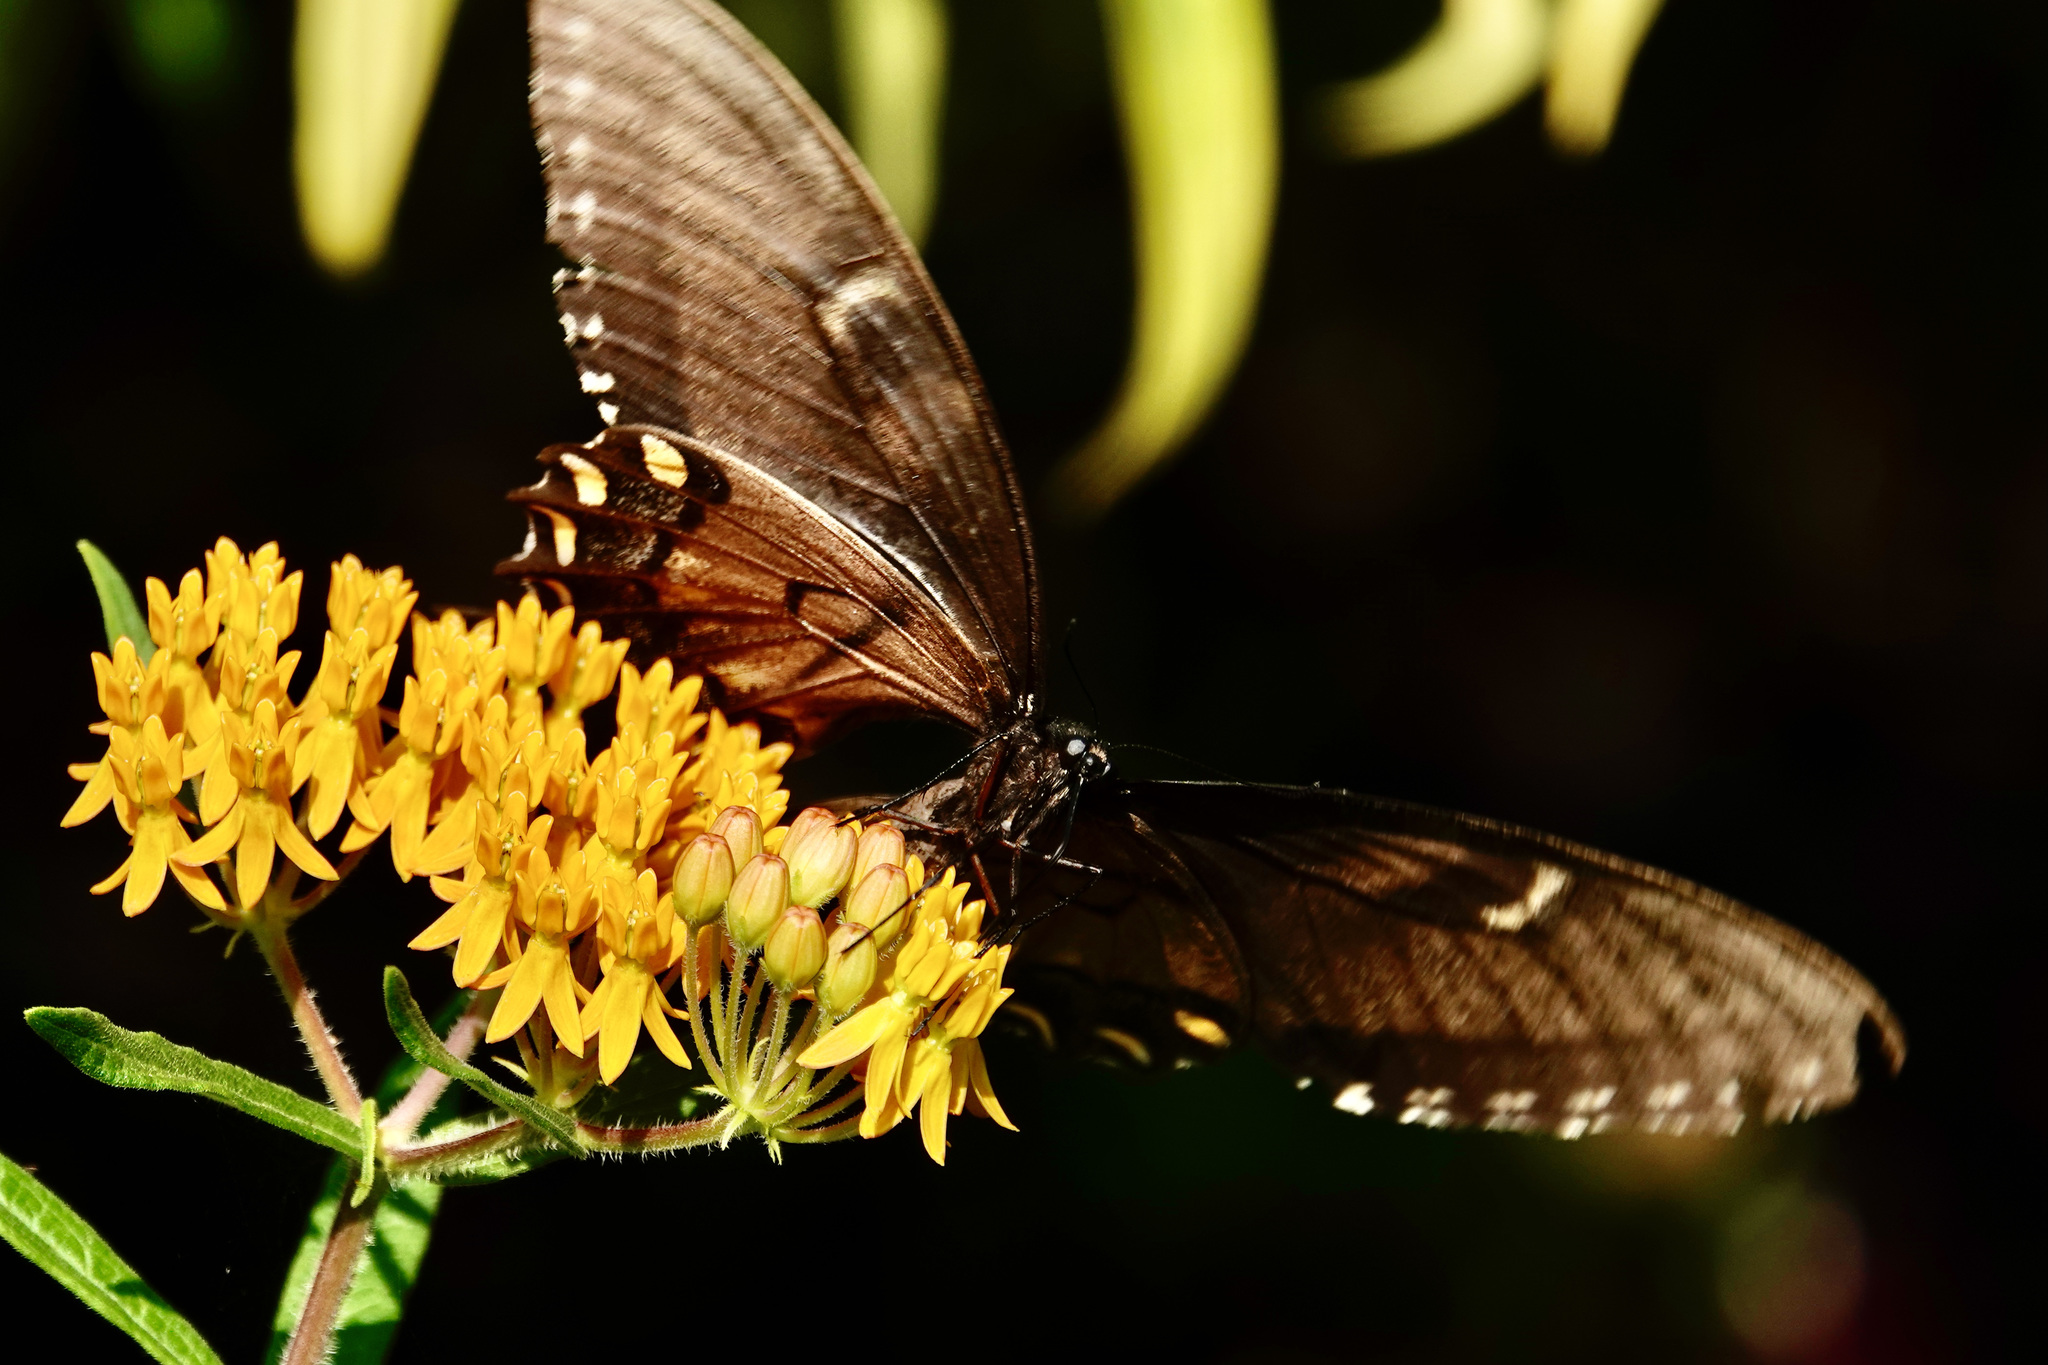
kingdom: Animalia
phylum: Arthropoda
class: Insecta
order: Lepidoptera
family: Papilionidae
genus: Papilio
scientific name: Papilio glaucus
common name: Tiger swallowtail
